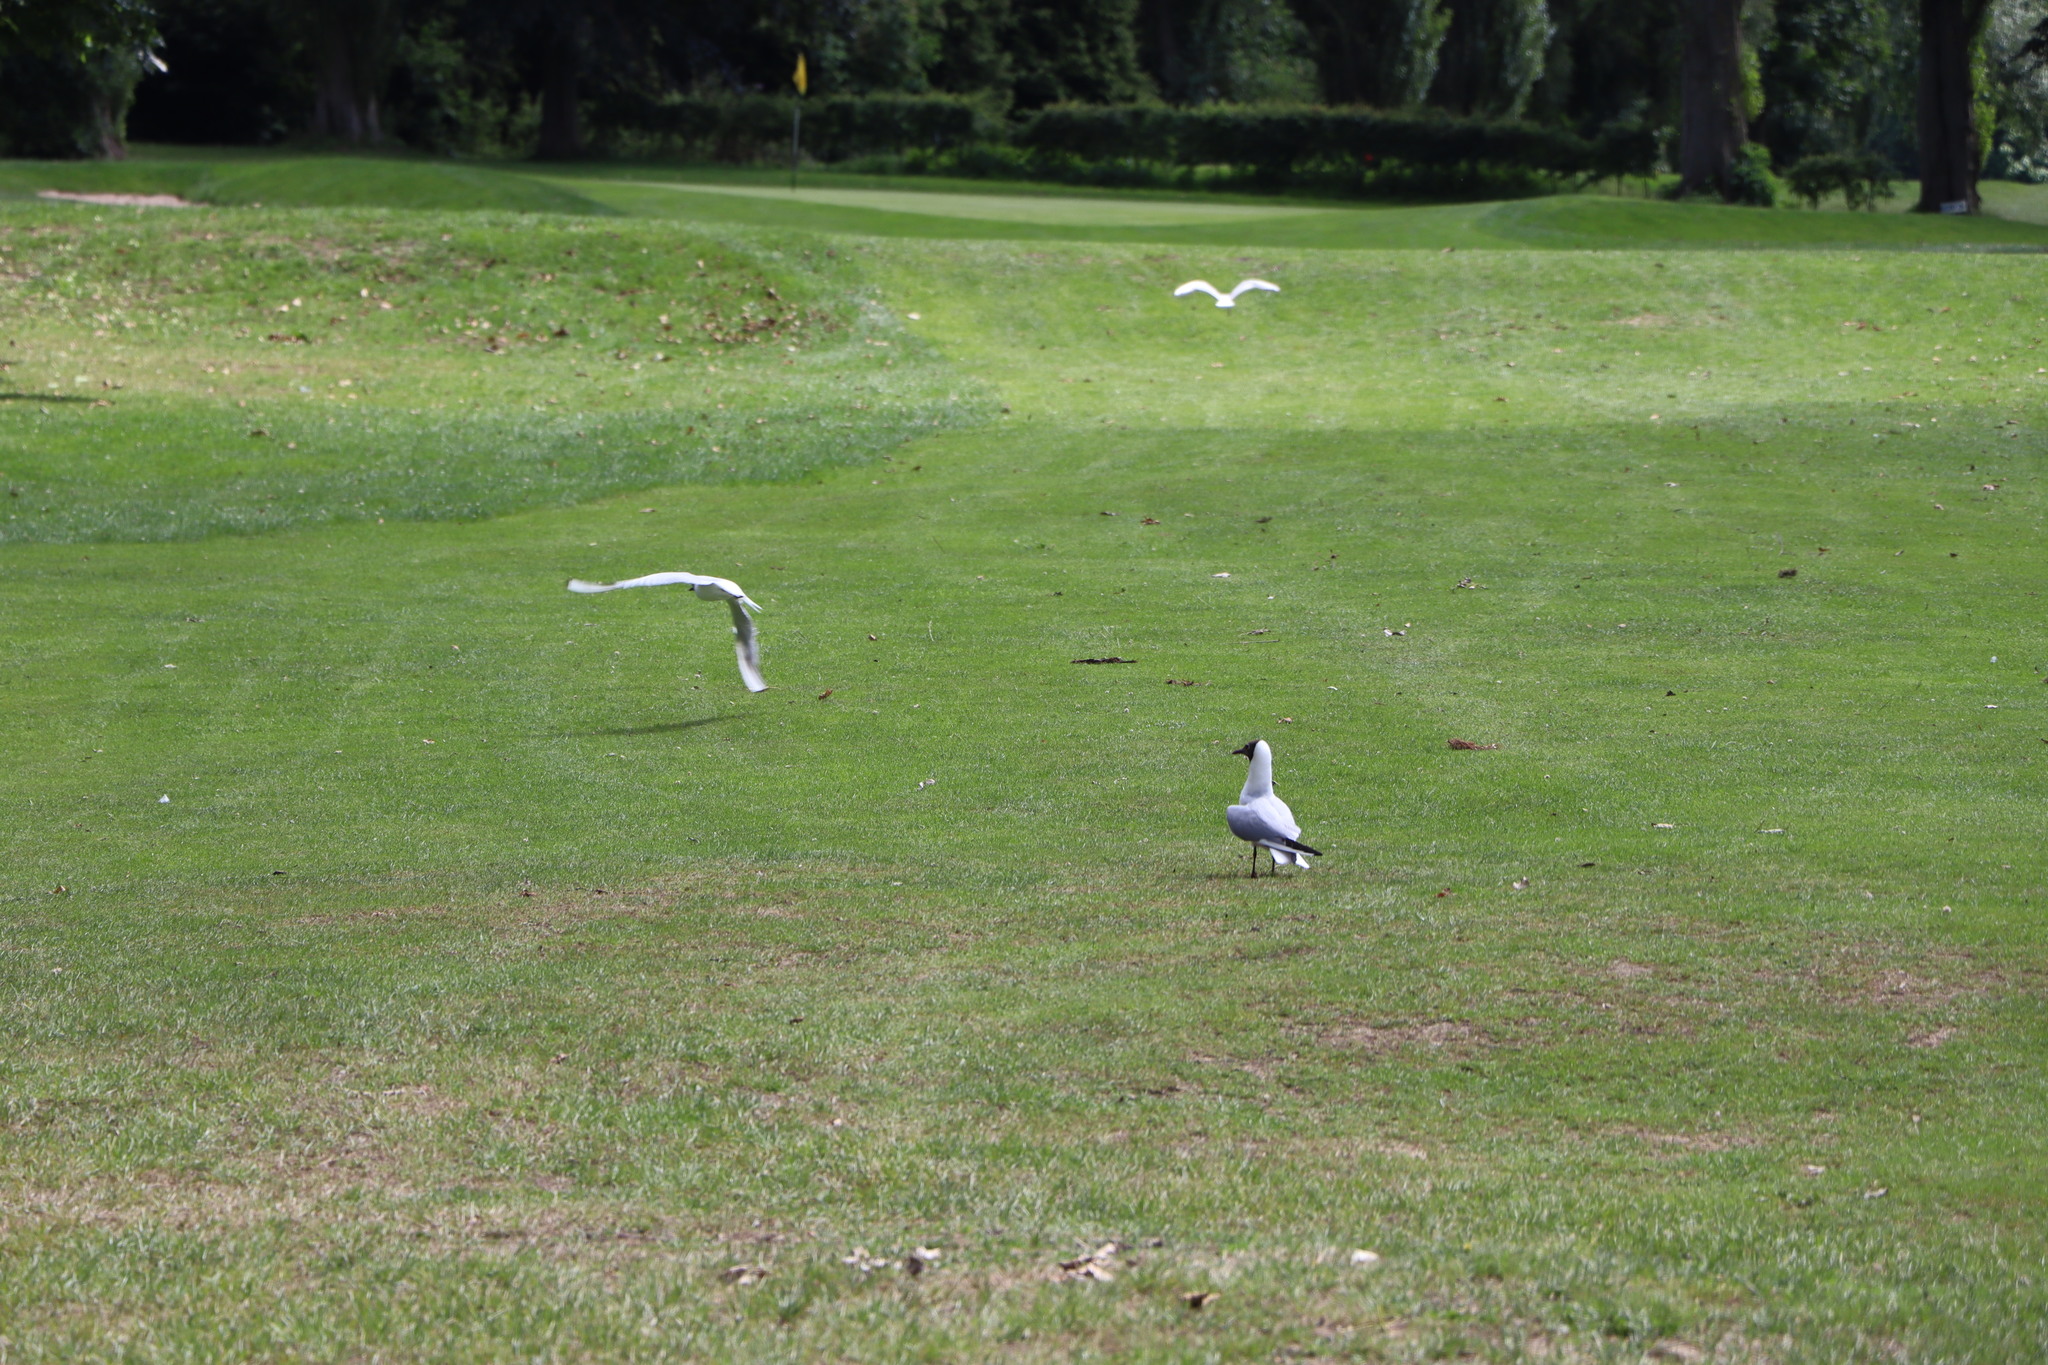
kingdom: Animalia
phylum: Chordata
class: Aves
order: Charadriiformes
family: Laridae
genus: Chroicocephalus
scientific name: Chroicocephalus ridibundus
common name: Black-headed gull
